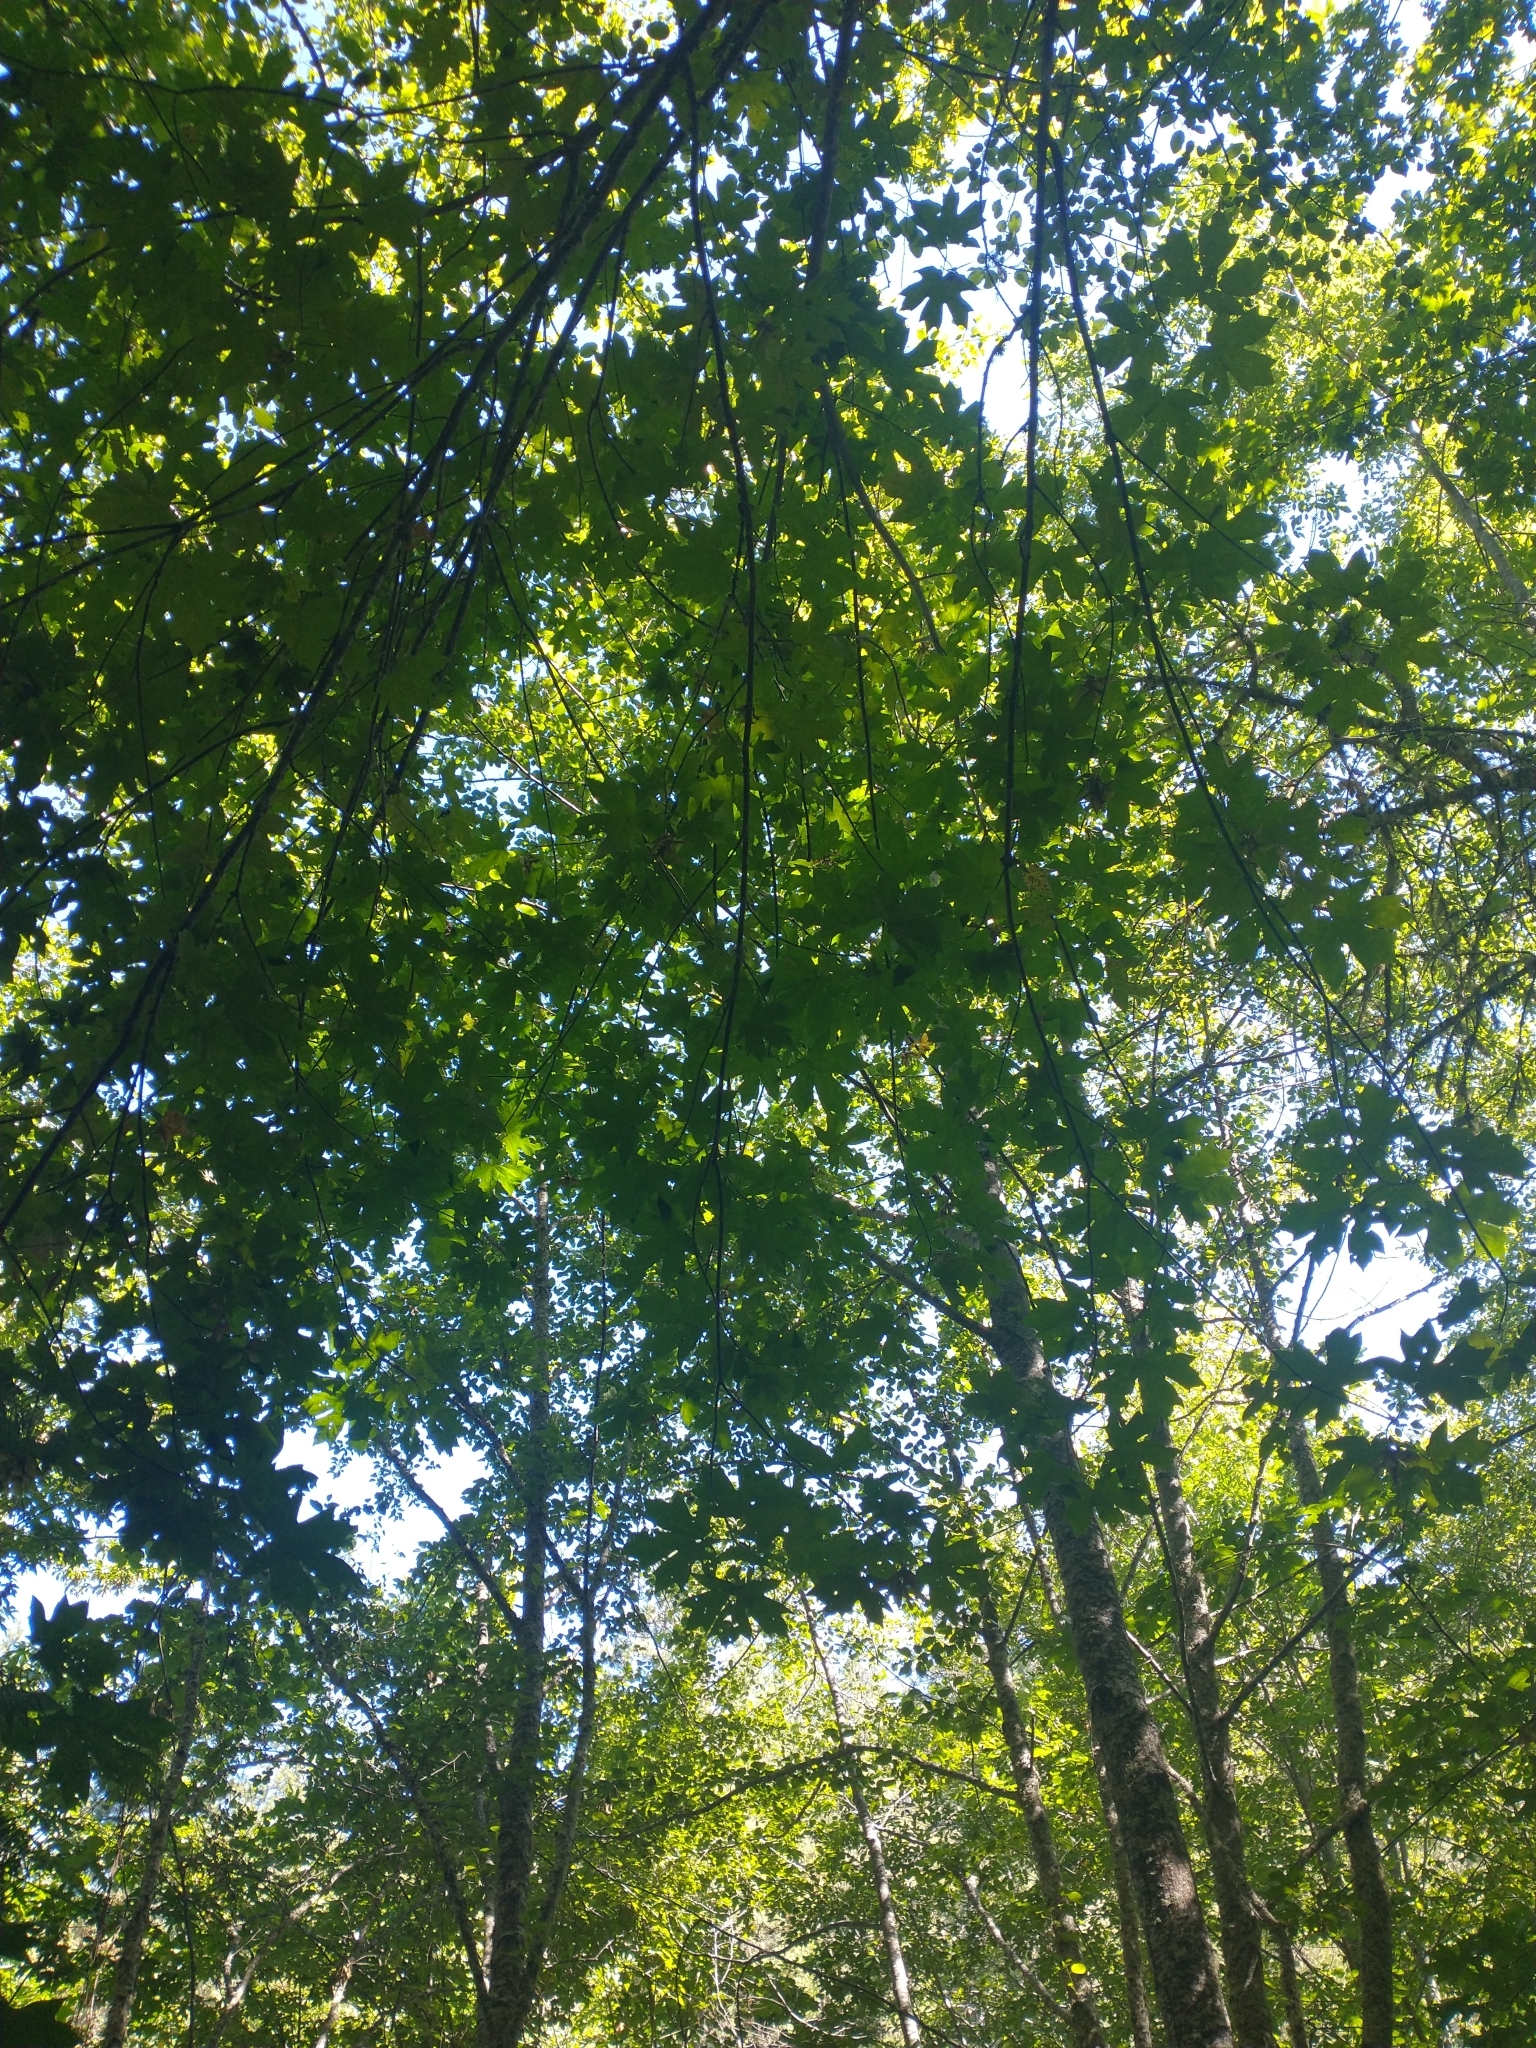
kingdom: Plantae
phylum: Tracheophyta
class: Magnoliopsida
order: Sapindales
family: Sapindaceae
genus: Acer
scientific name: Acer macrophyllum
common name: Oregon maple
